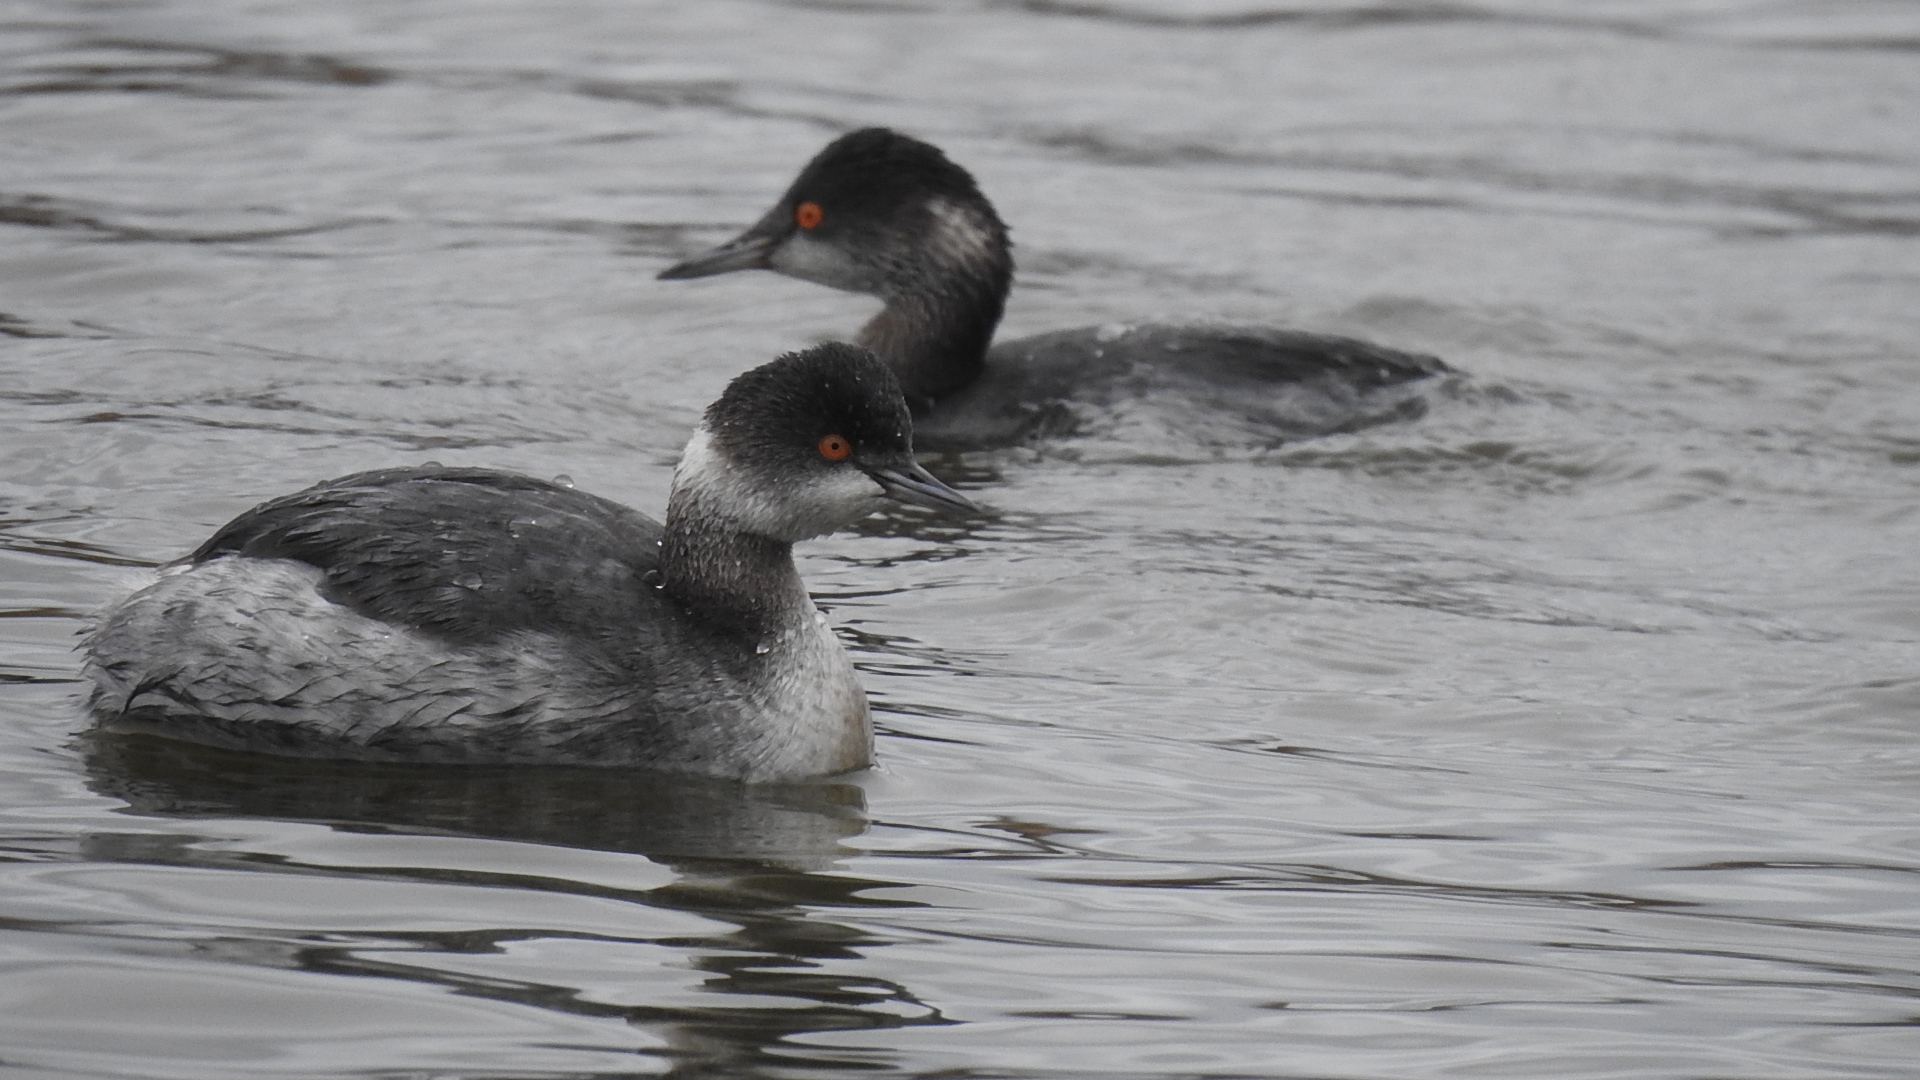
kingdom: Animalia
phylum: Chordata
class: Aves
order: Podicipediformes
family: Podicipedidae
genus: Podiceps
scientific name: Podiceps nigricollis
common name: Black-necked grebe
